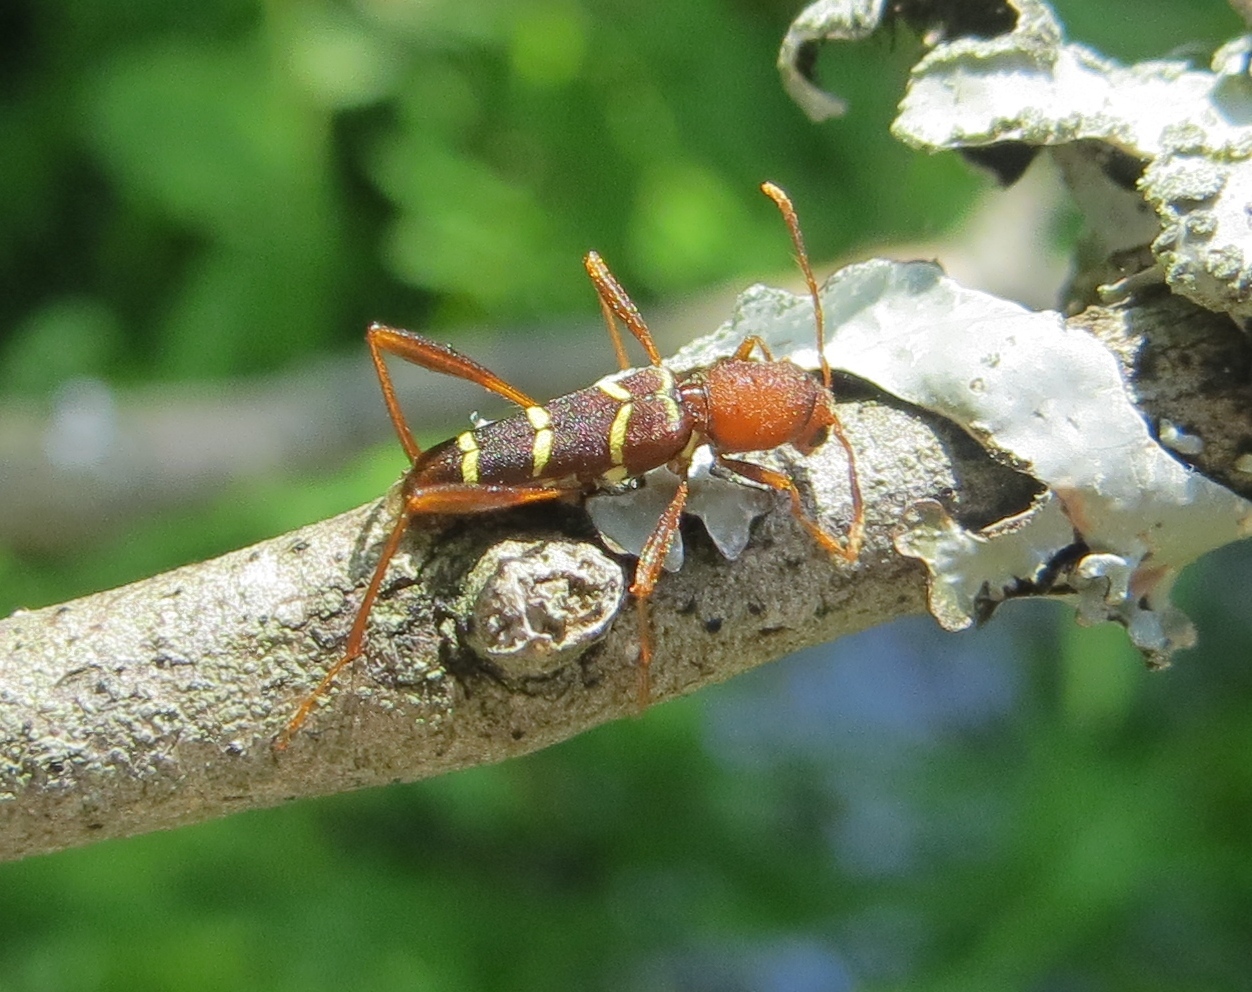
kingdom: Animalia
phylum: Arthropoda
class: Insecta
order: Coleoptera
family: Cerambycidae
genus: Neoclytus
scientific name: Neoclytus acuminatus
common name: Read-headed ash borer
